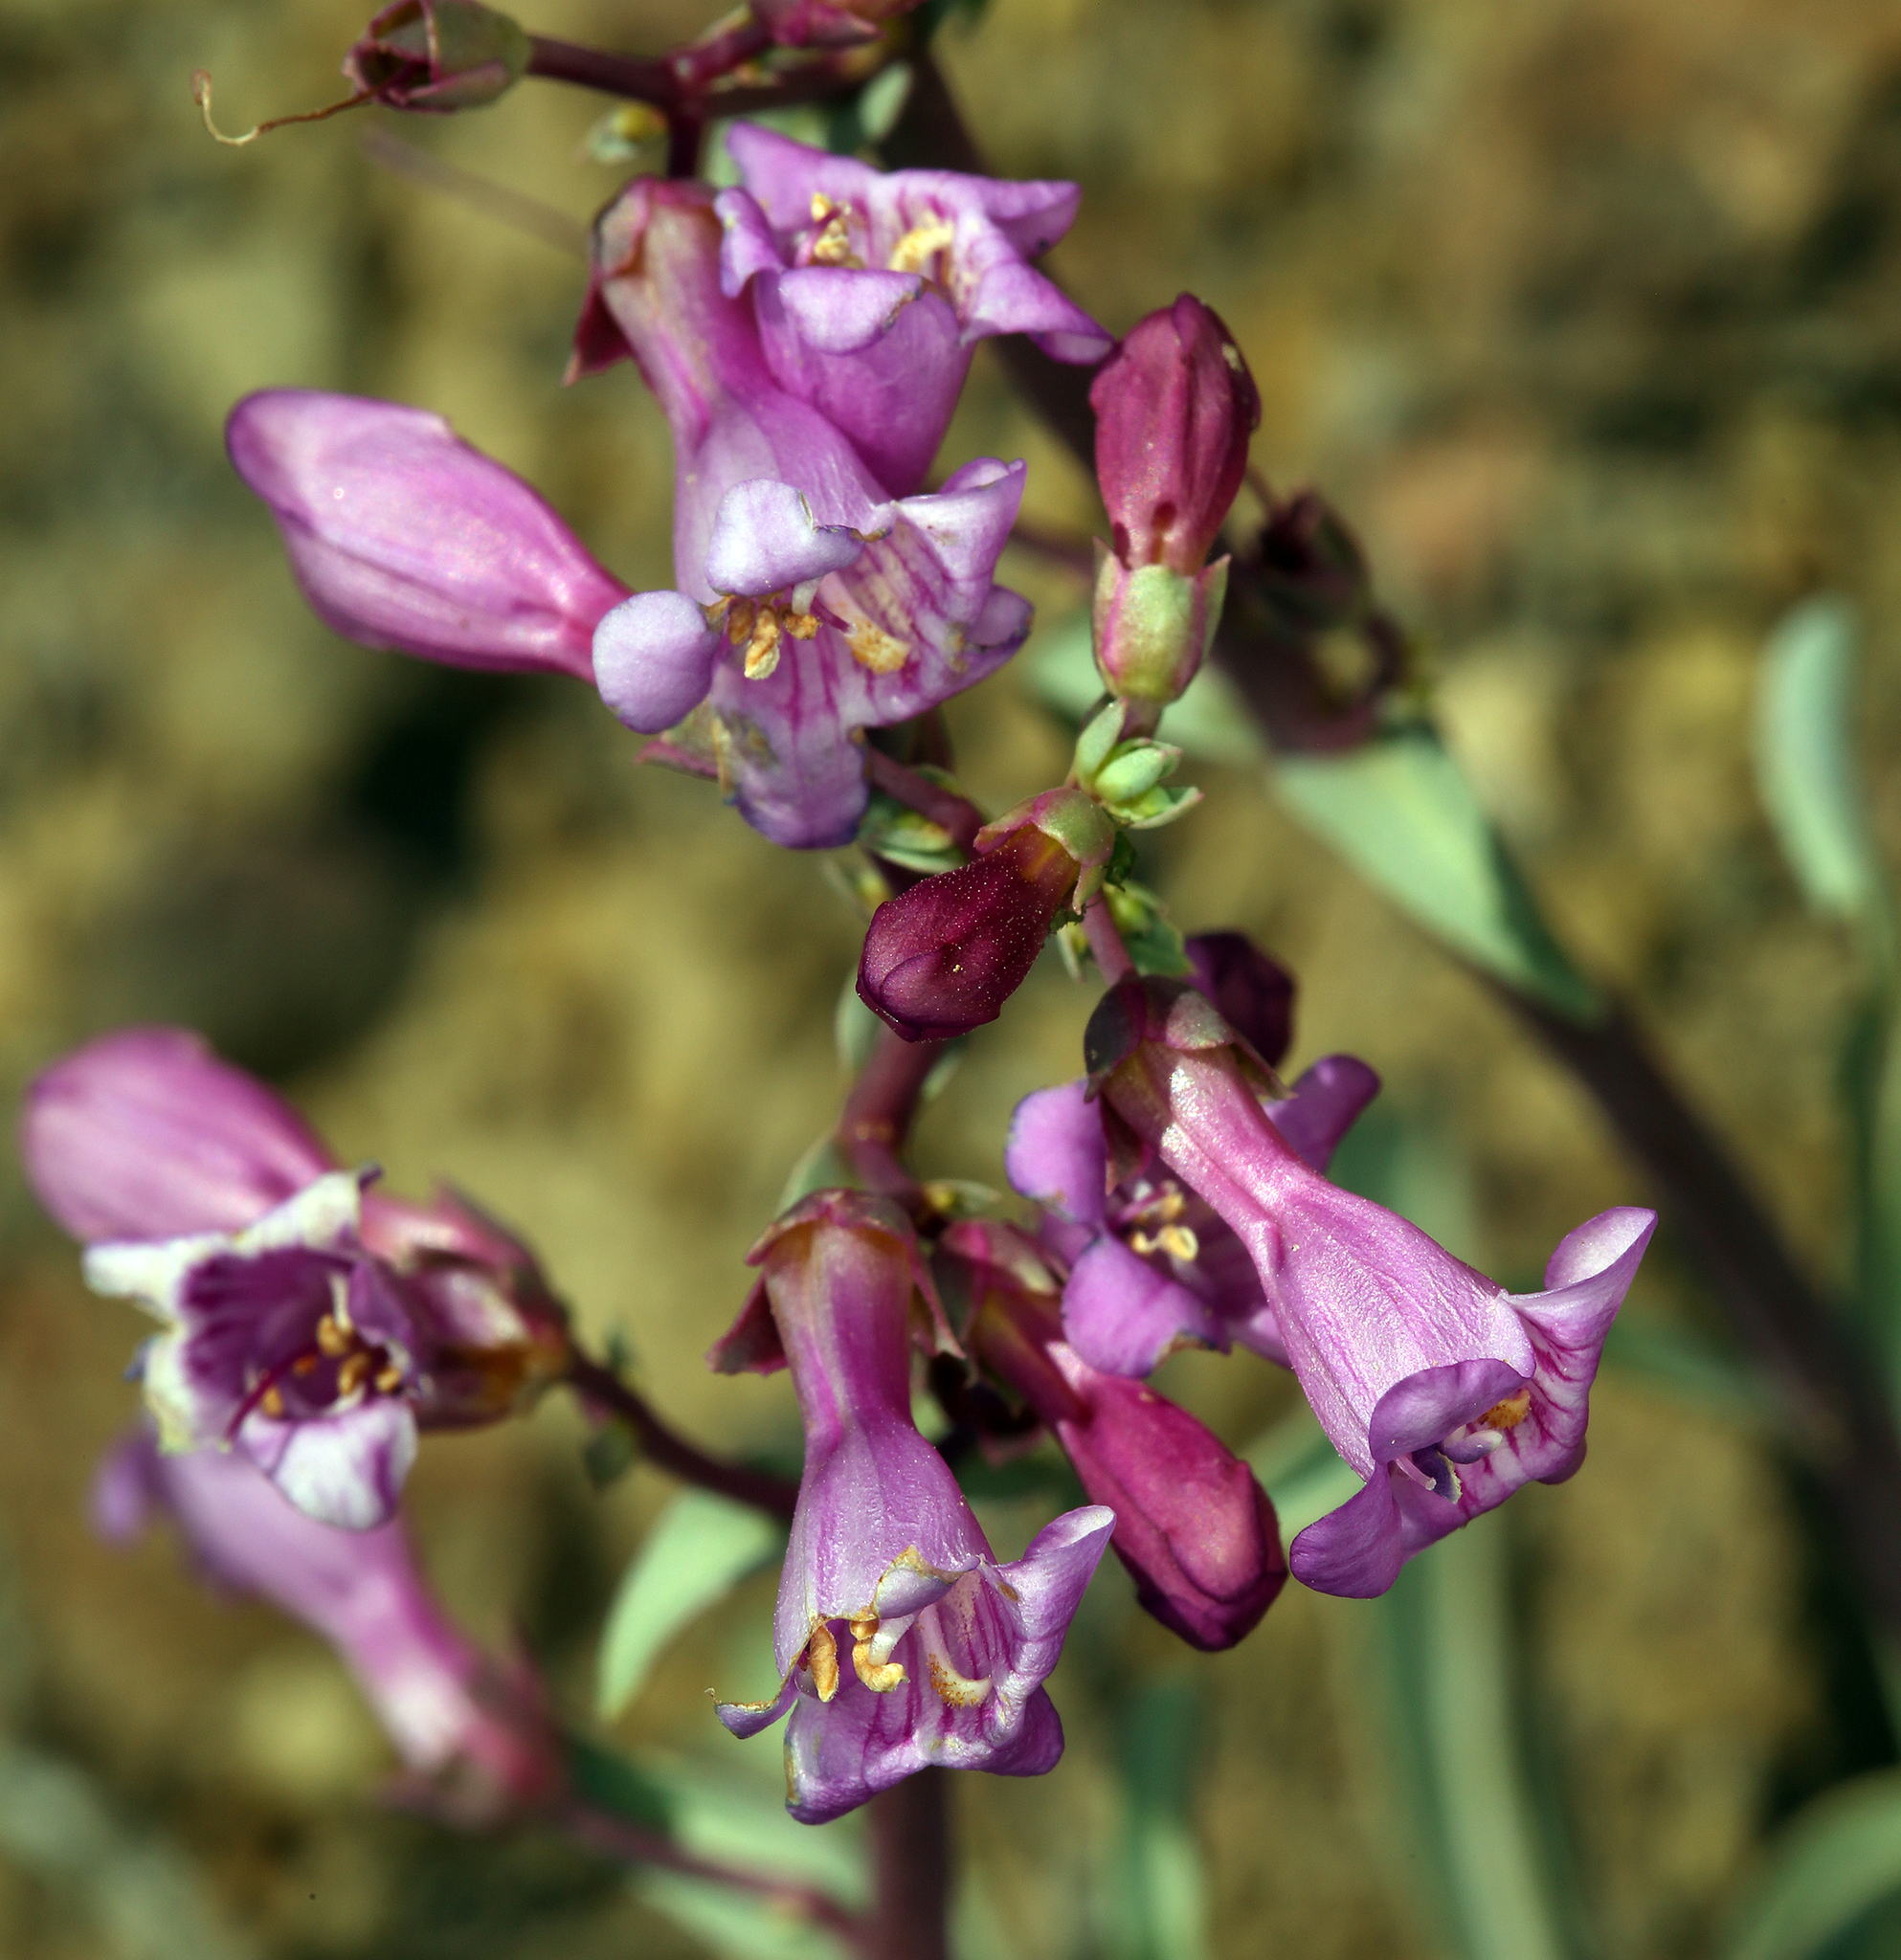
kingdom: Plantae
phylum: Tracheophyta
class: Magnoliopsida
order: Lamiales
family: Plantaginaceae
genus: Penstemon
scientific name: Penstemon patens
